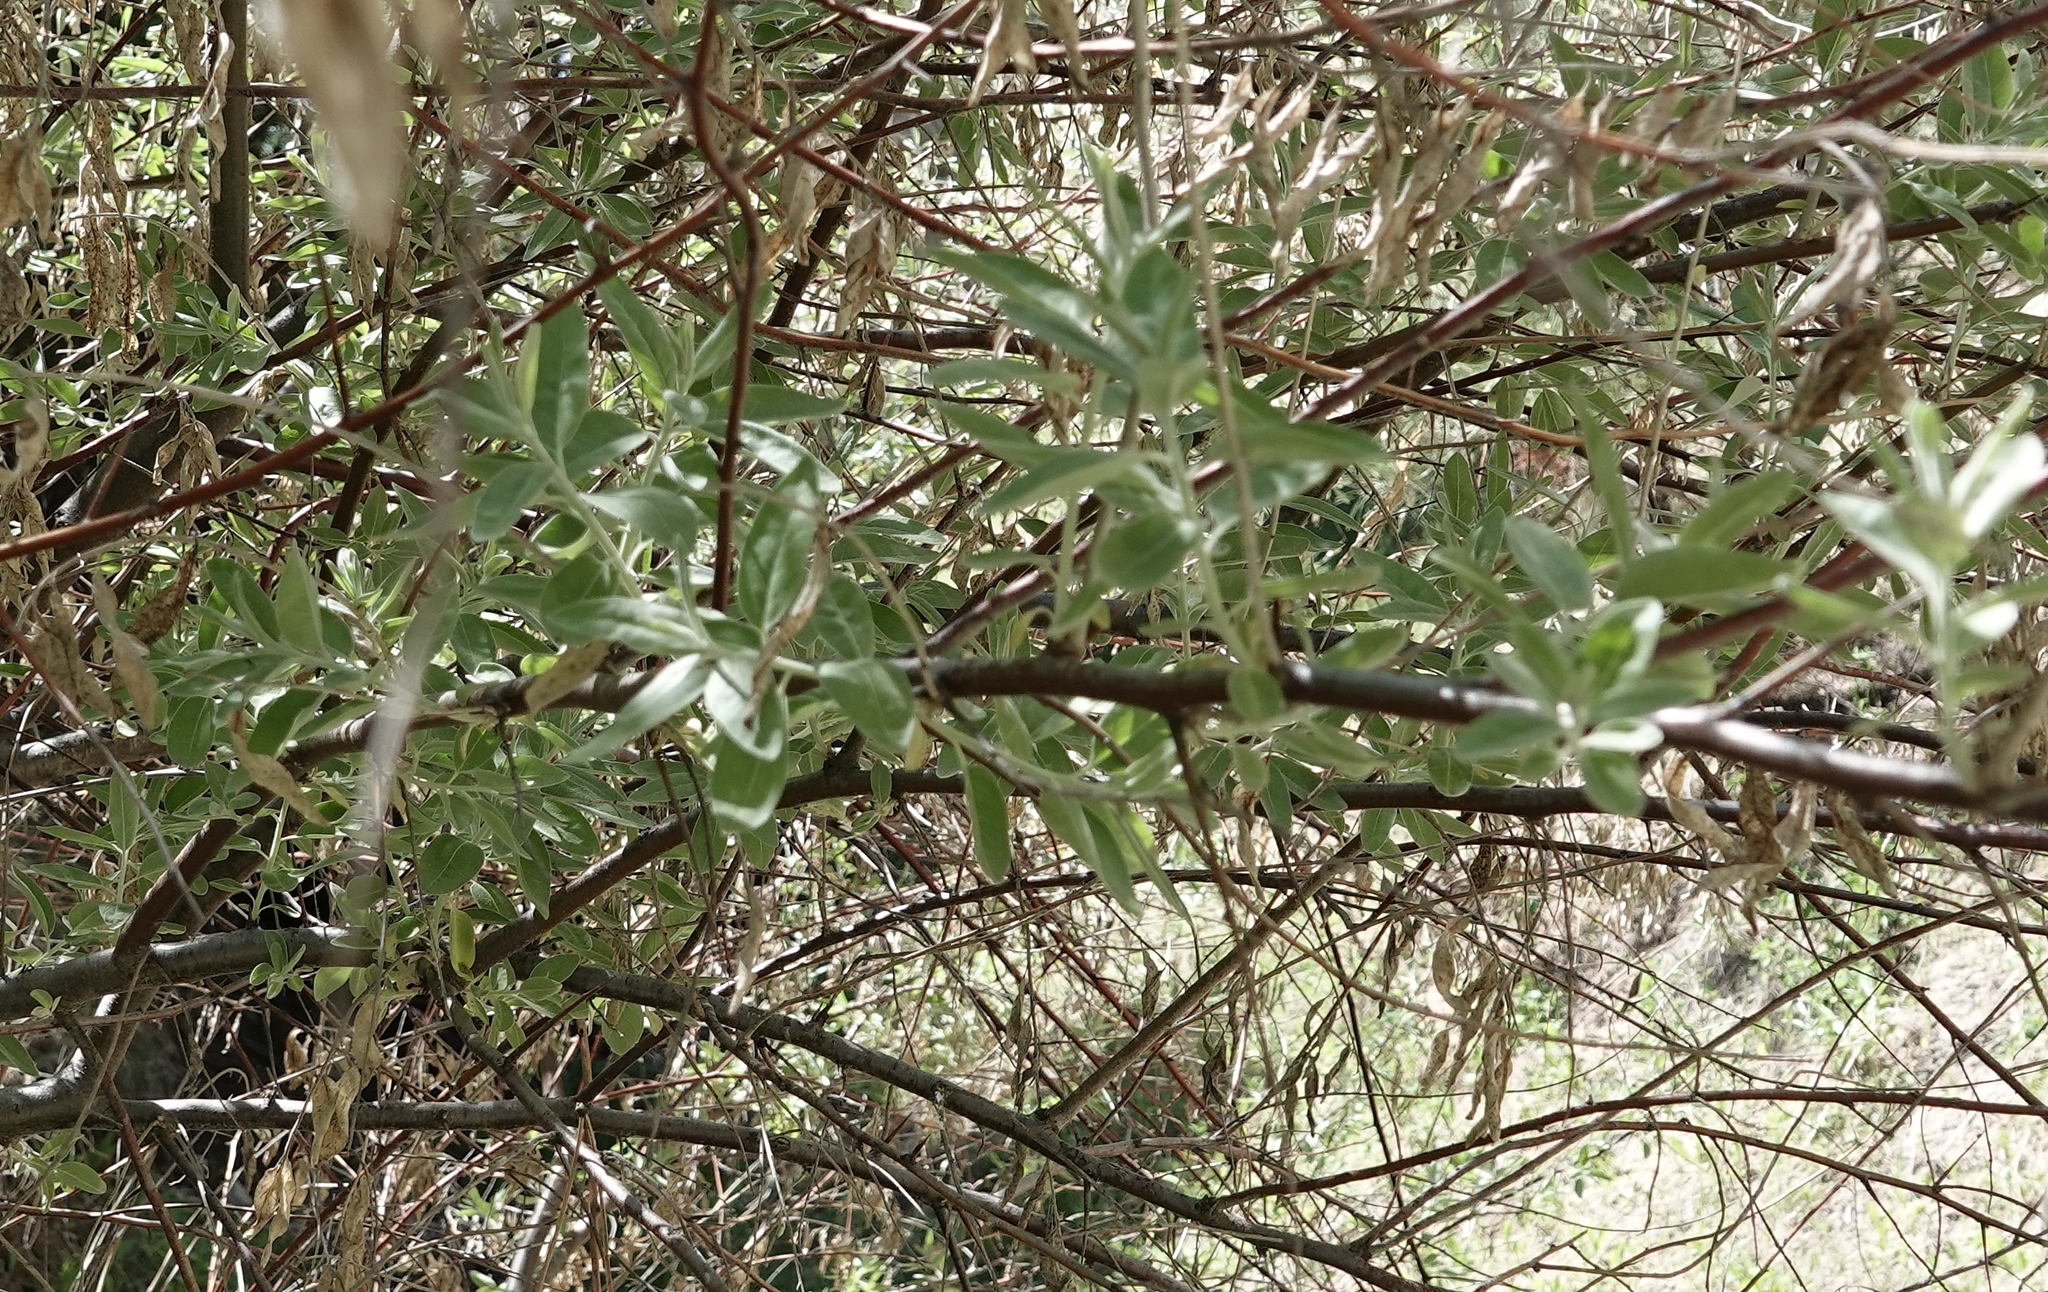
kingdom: Plantae
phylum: Tracheophyta
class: Magnoliopsida
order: Rosales
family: Elaeagnaceae
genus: Elaeagnus
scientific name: Elaeagnus angustifolia
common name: Russian olive
